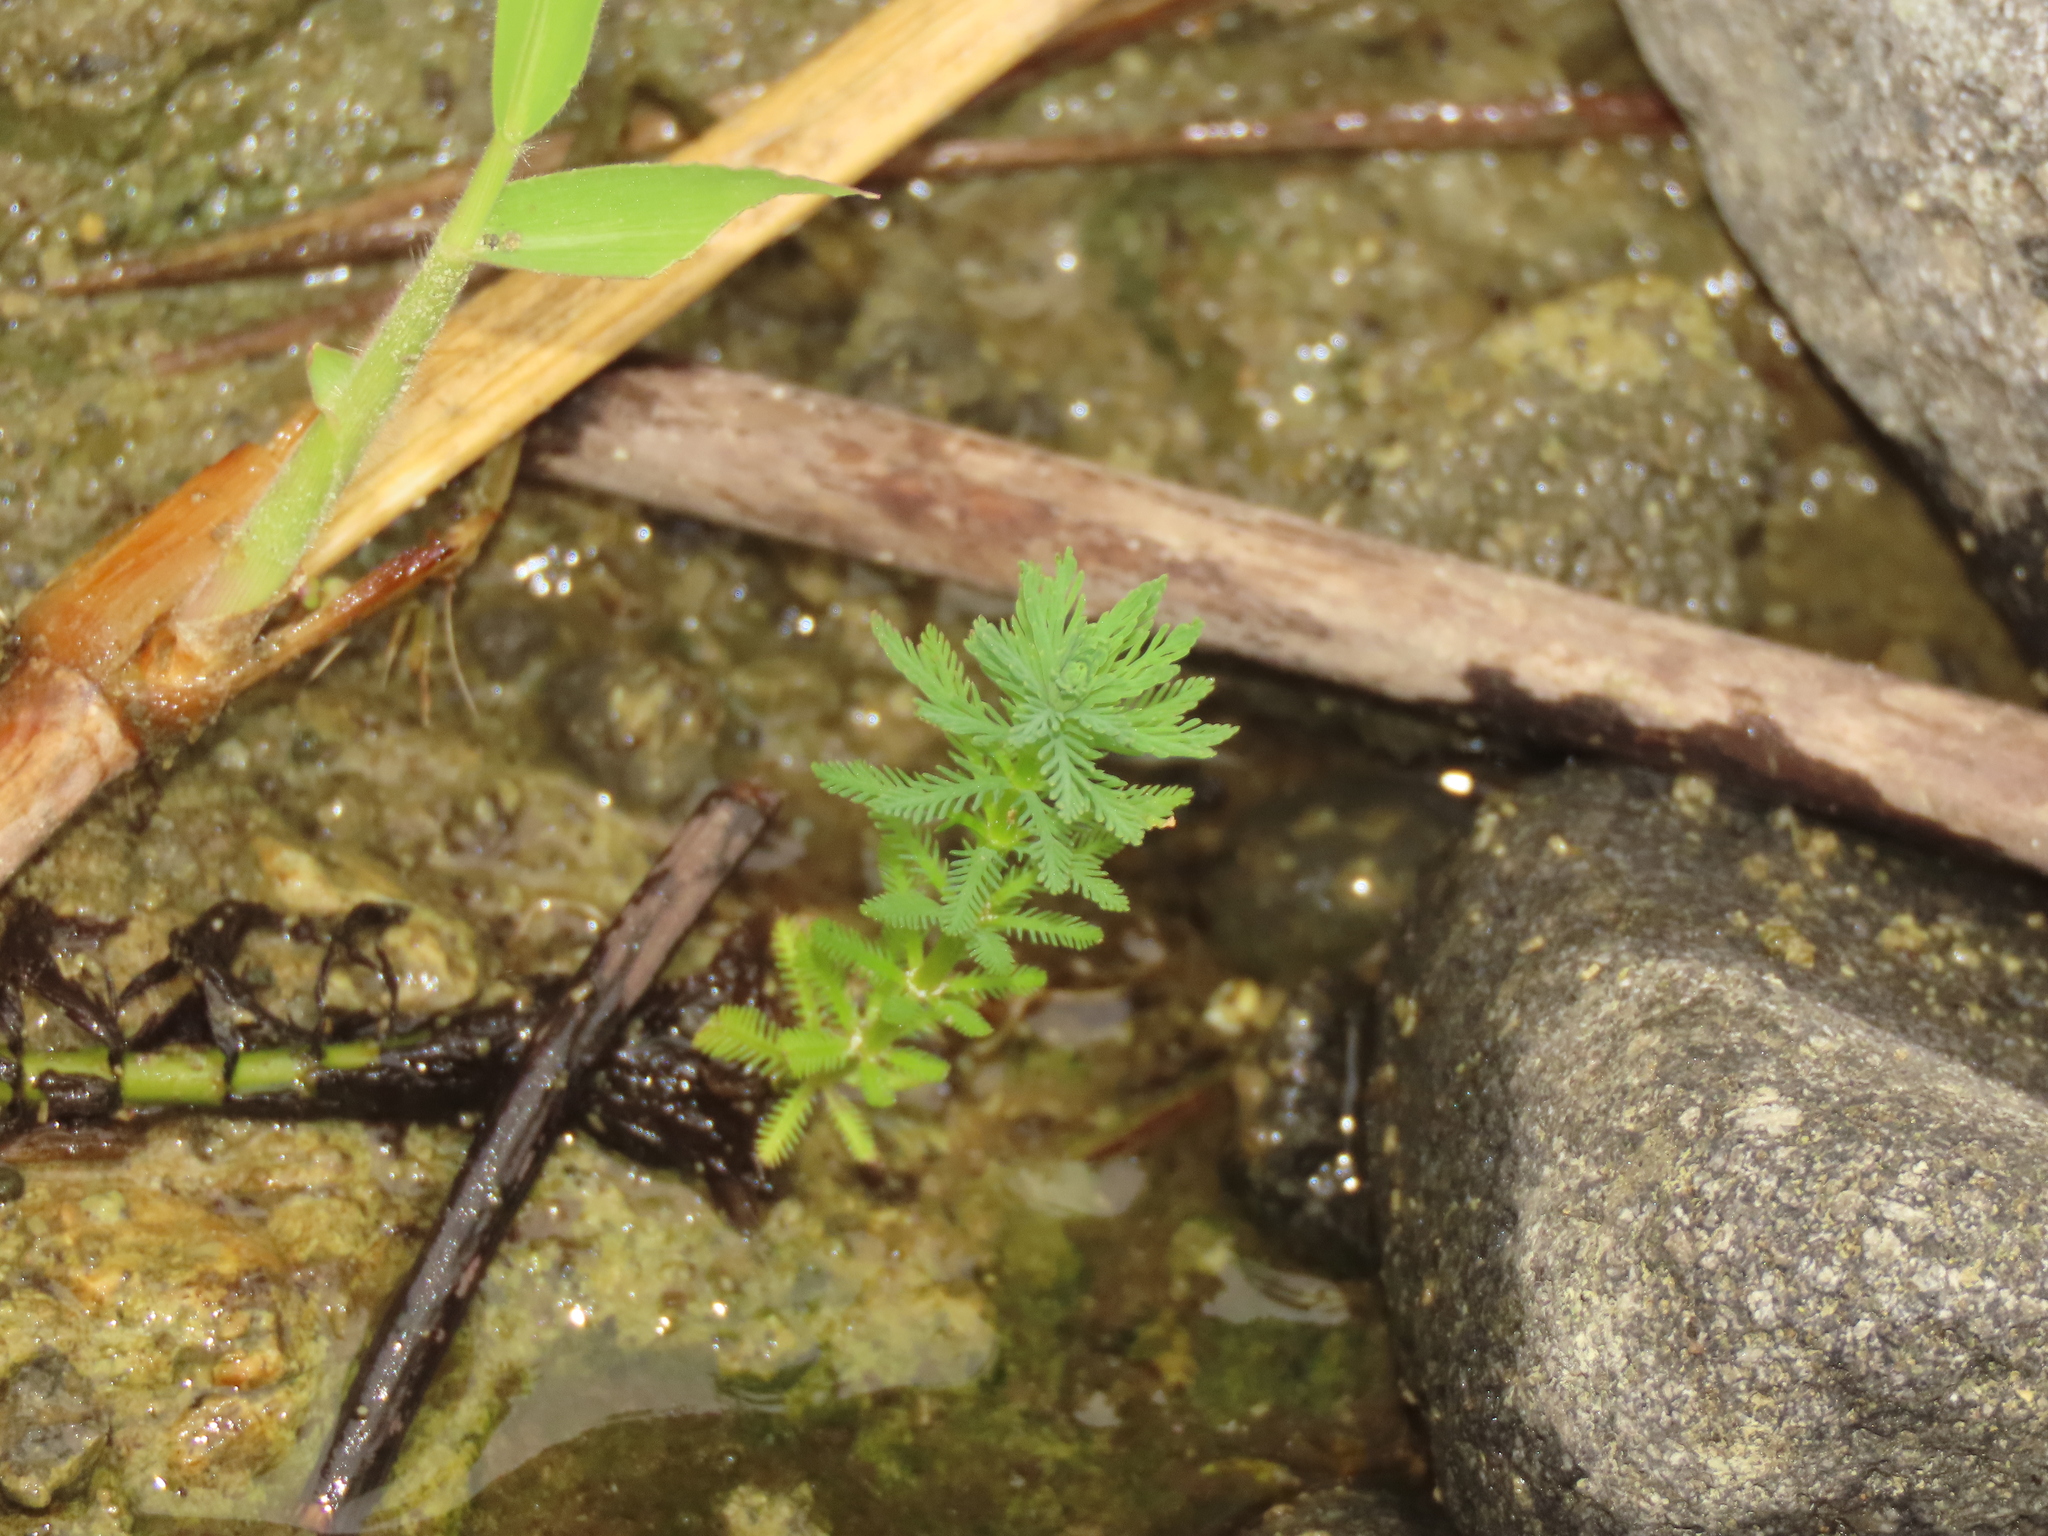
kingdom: Plantae
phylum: Tracheophyta
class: Magnoliopsida
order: Saxifragales
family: Haloragaceae
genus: Myriophyllum
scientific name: Myriophyllum aquaticum
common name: Parrot's feather
